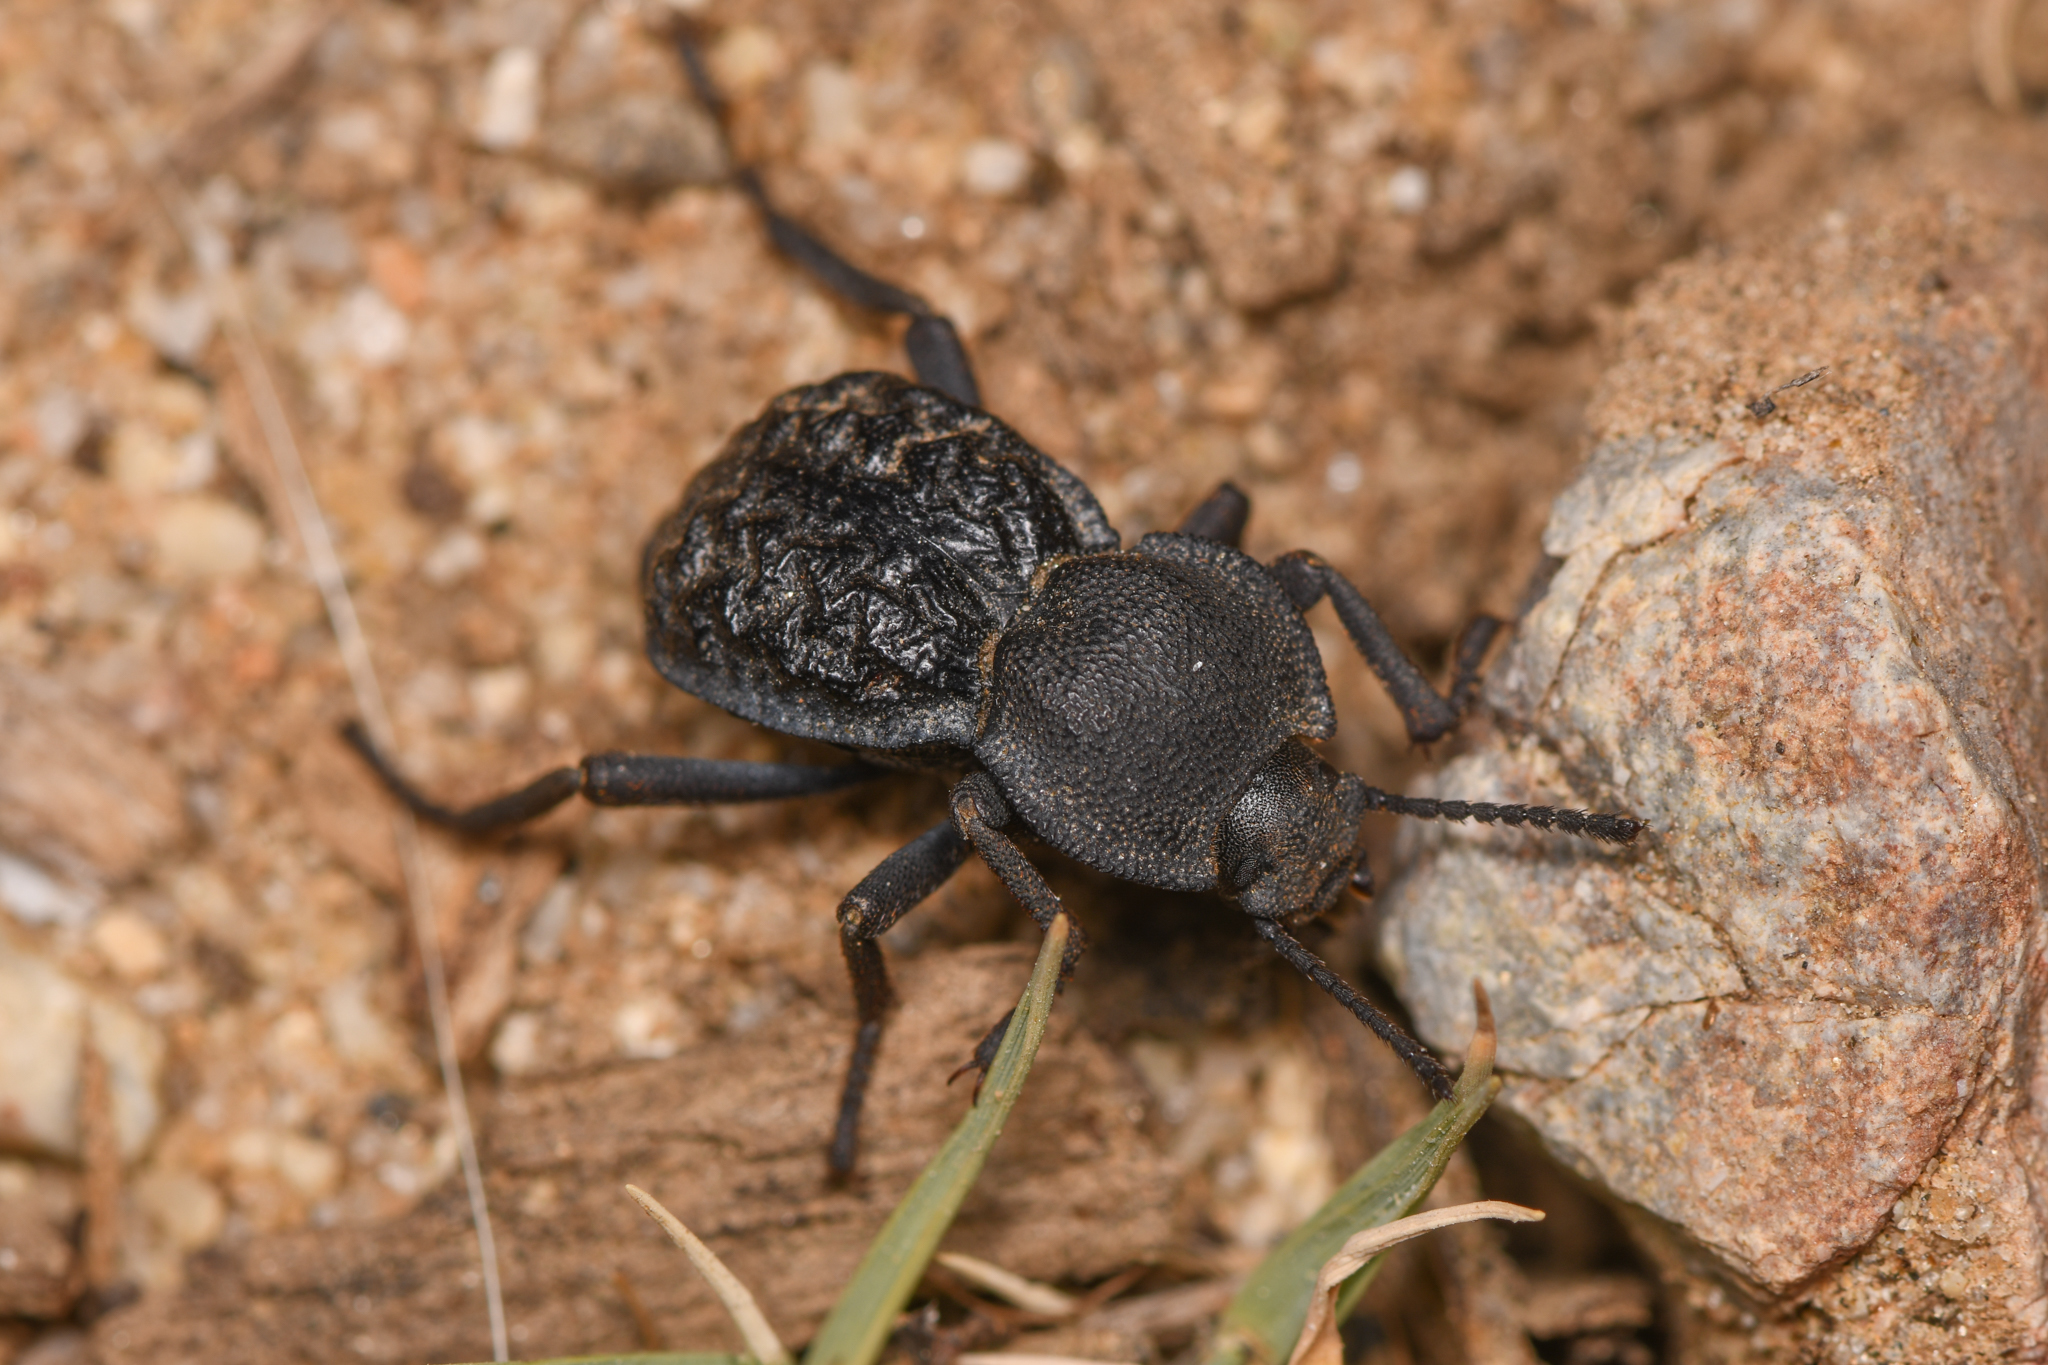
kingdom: Animalia
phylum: Arthropoda
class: Insecta
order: Coleoptera
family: Tenebrionidae
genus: Microschatia
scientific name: Microschatia inaequalis
